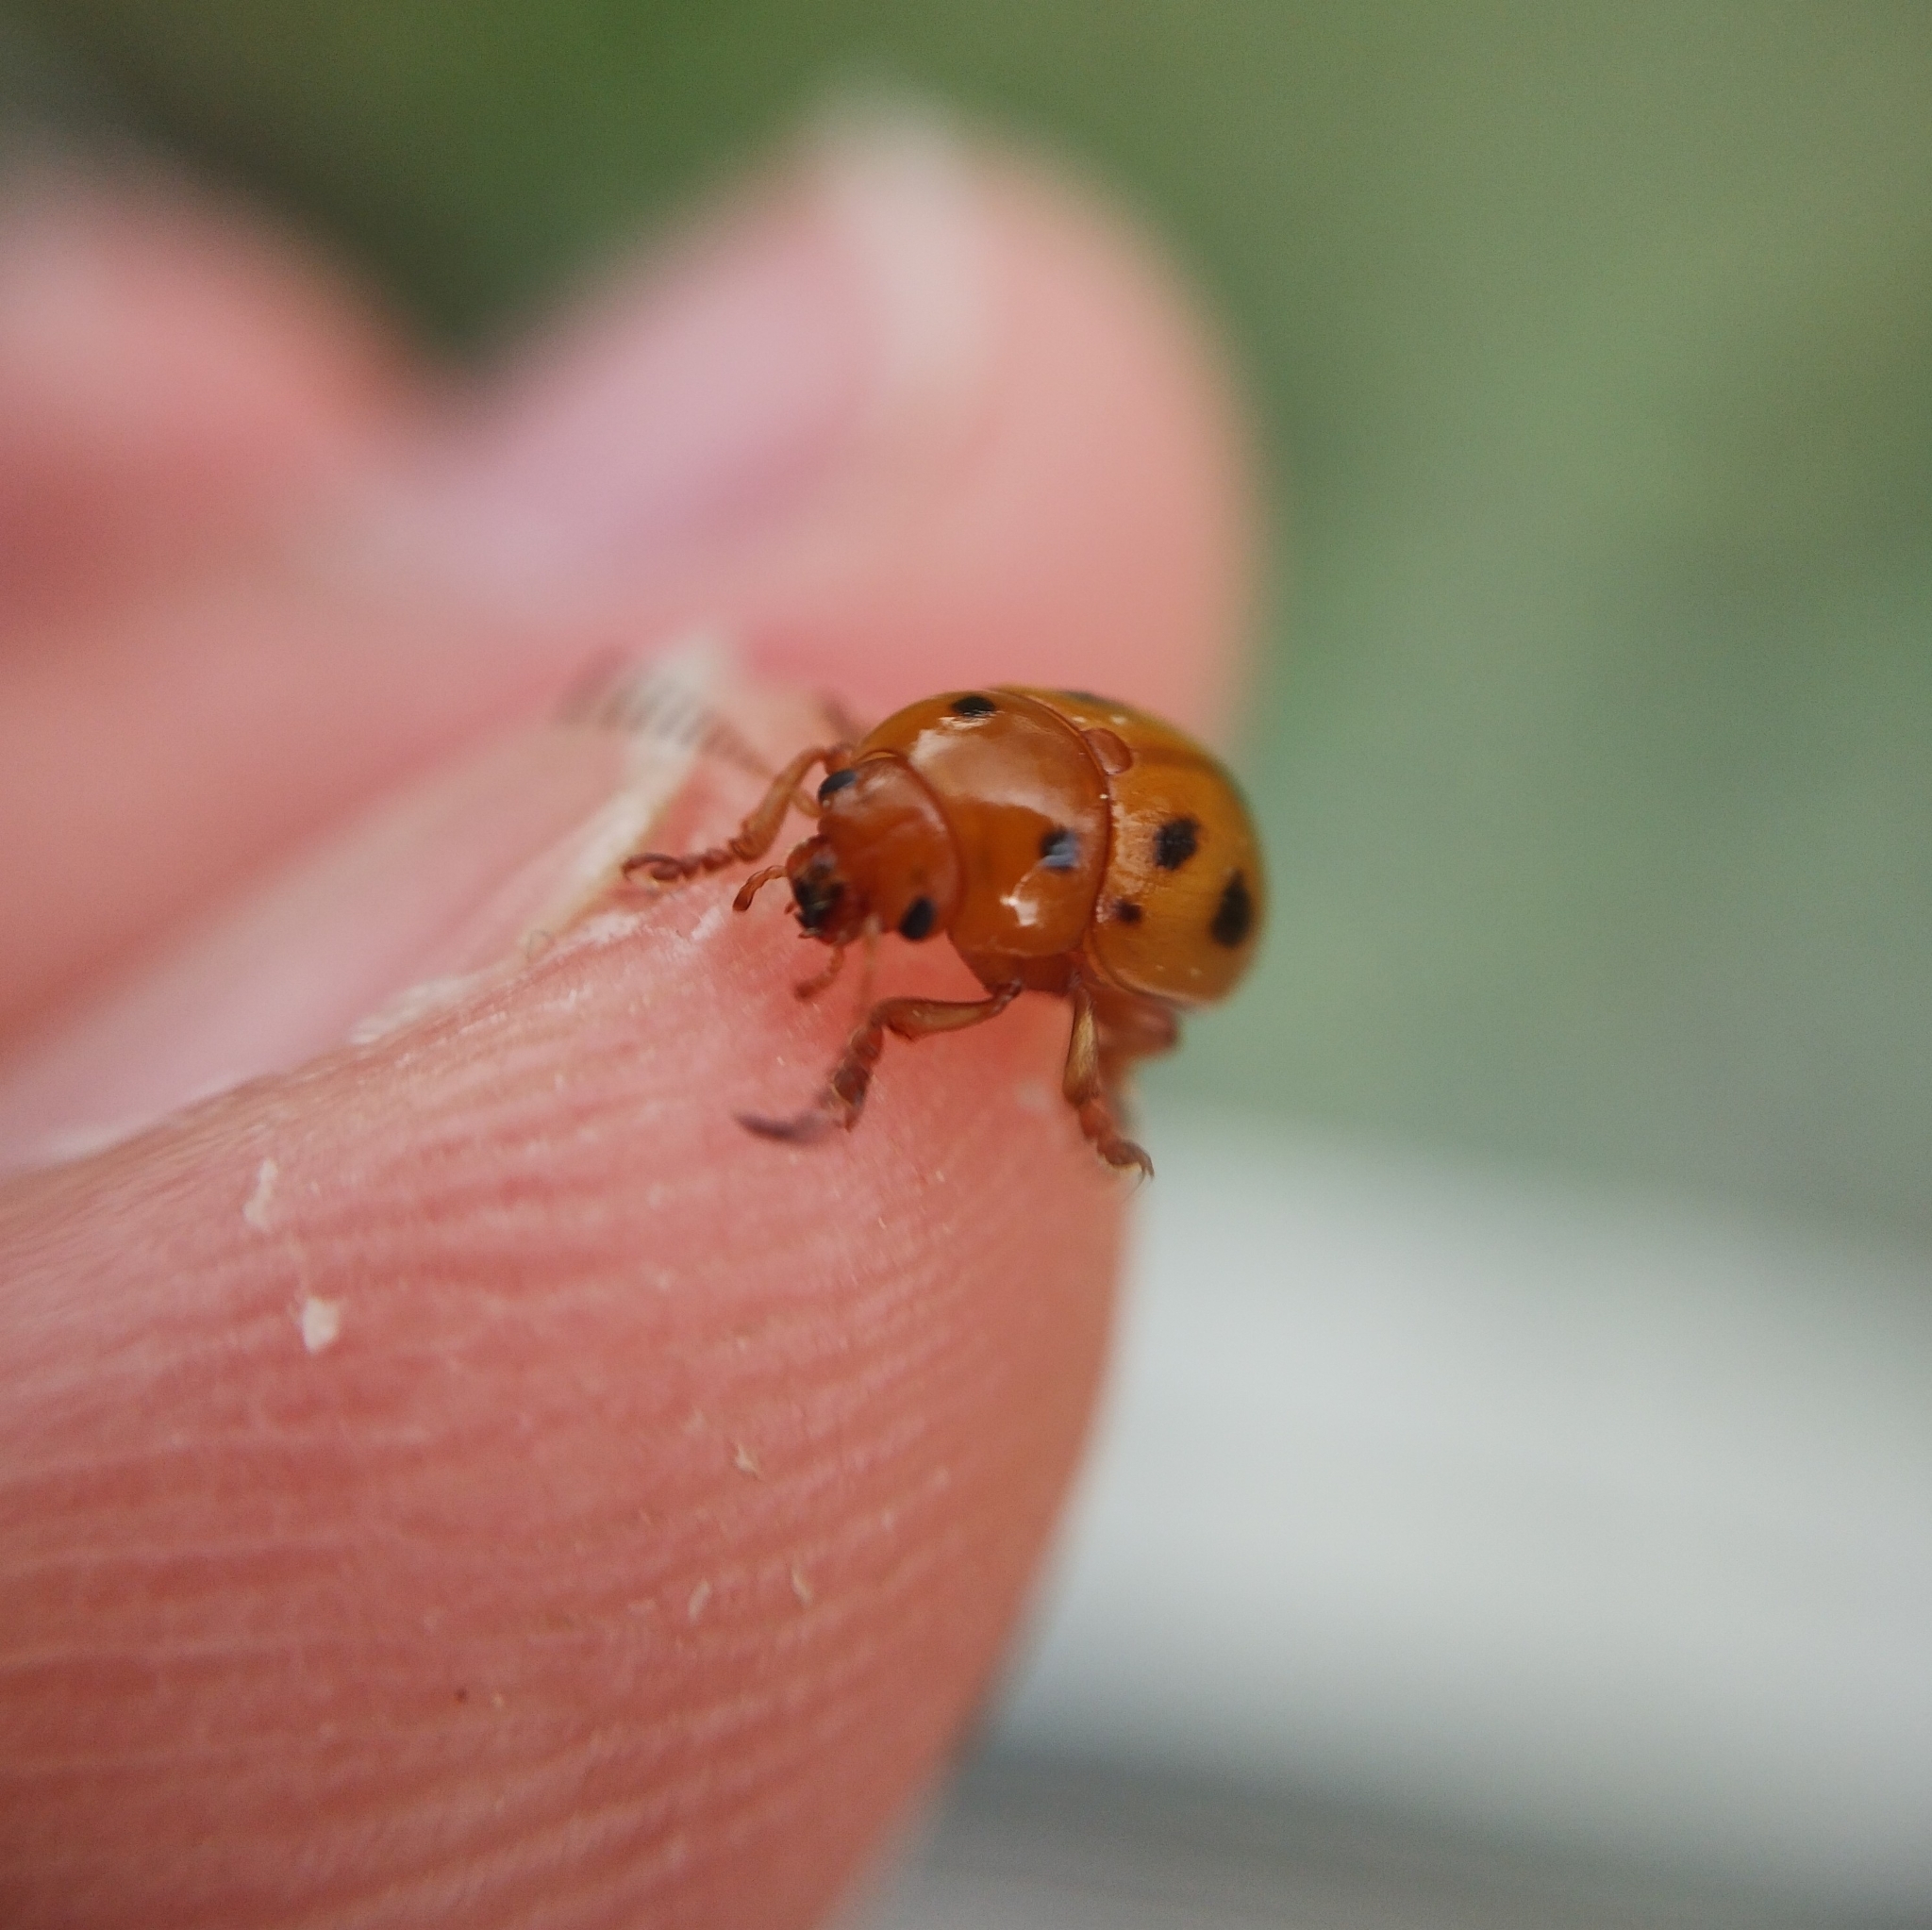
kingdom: Animalia
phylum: Arthropoda
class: Insecta
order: Coleoptera
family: Chrysomelidae
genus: Gonioctena
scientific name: Gonioctena fornicata
